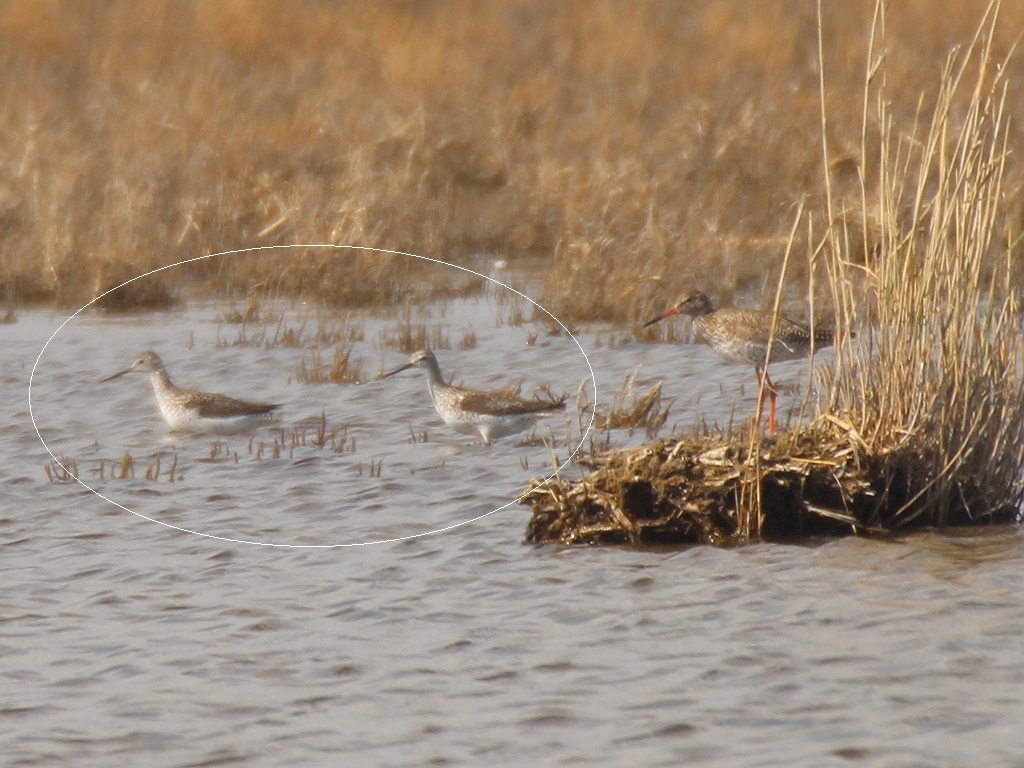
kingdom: Animalia
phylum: Chordata
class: Aves
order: Charadriiformes
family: Scolopacidae
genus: Tringa
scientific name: Tringa stagnatilis
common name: Marsh sandpiper
